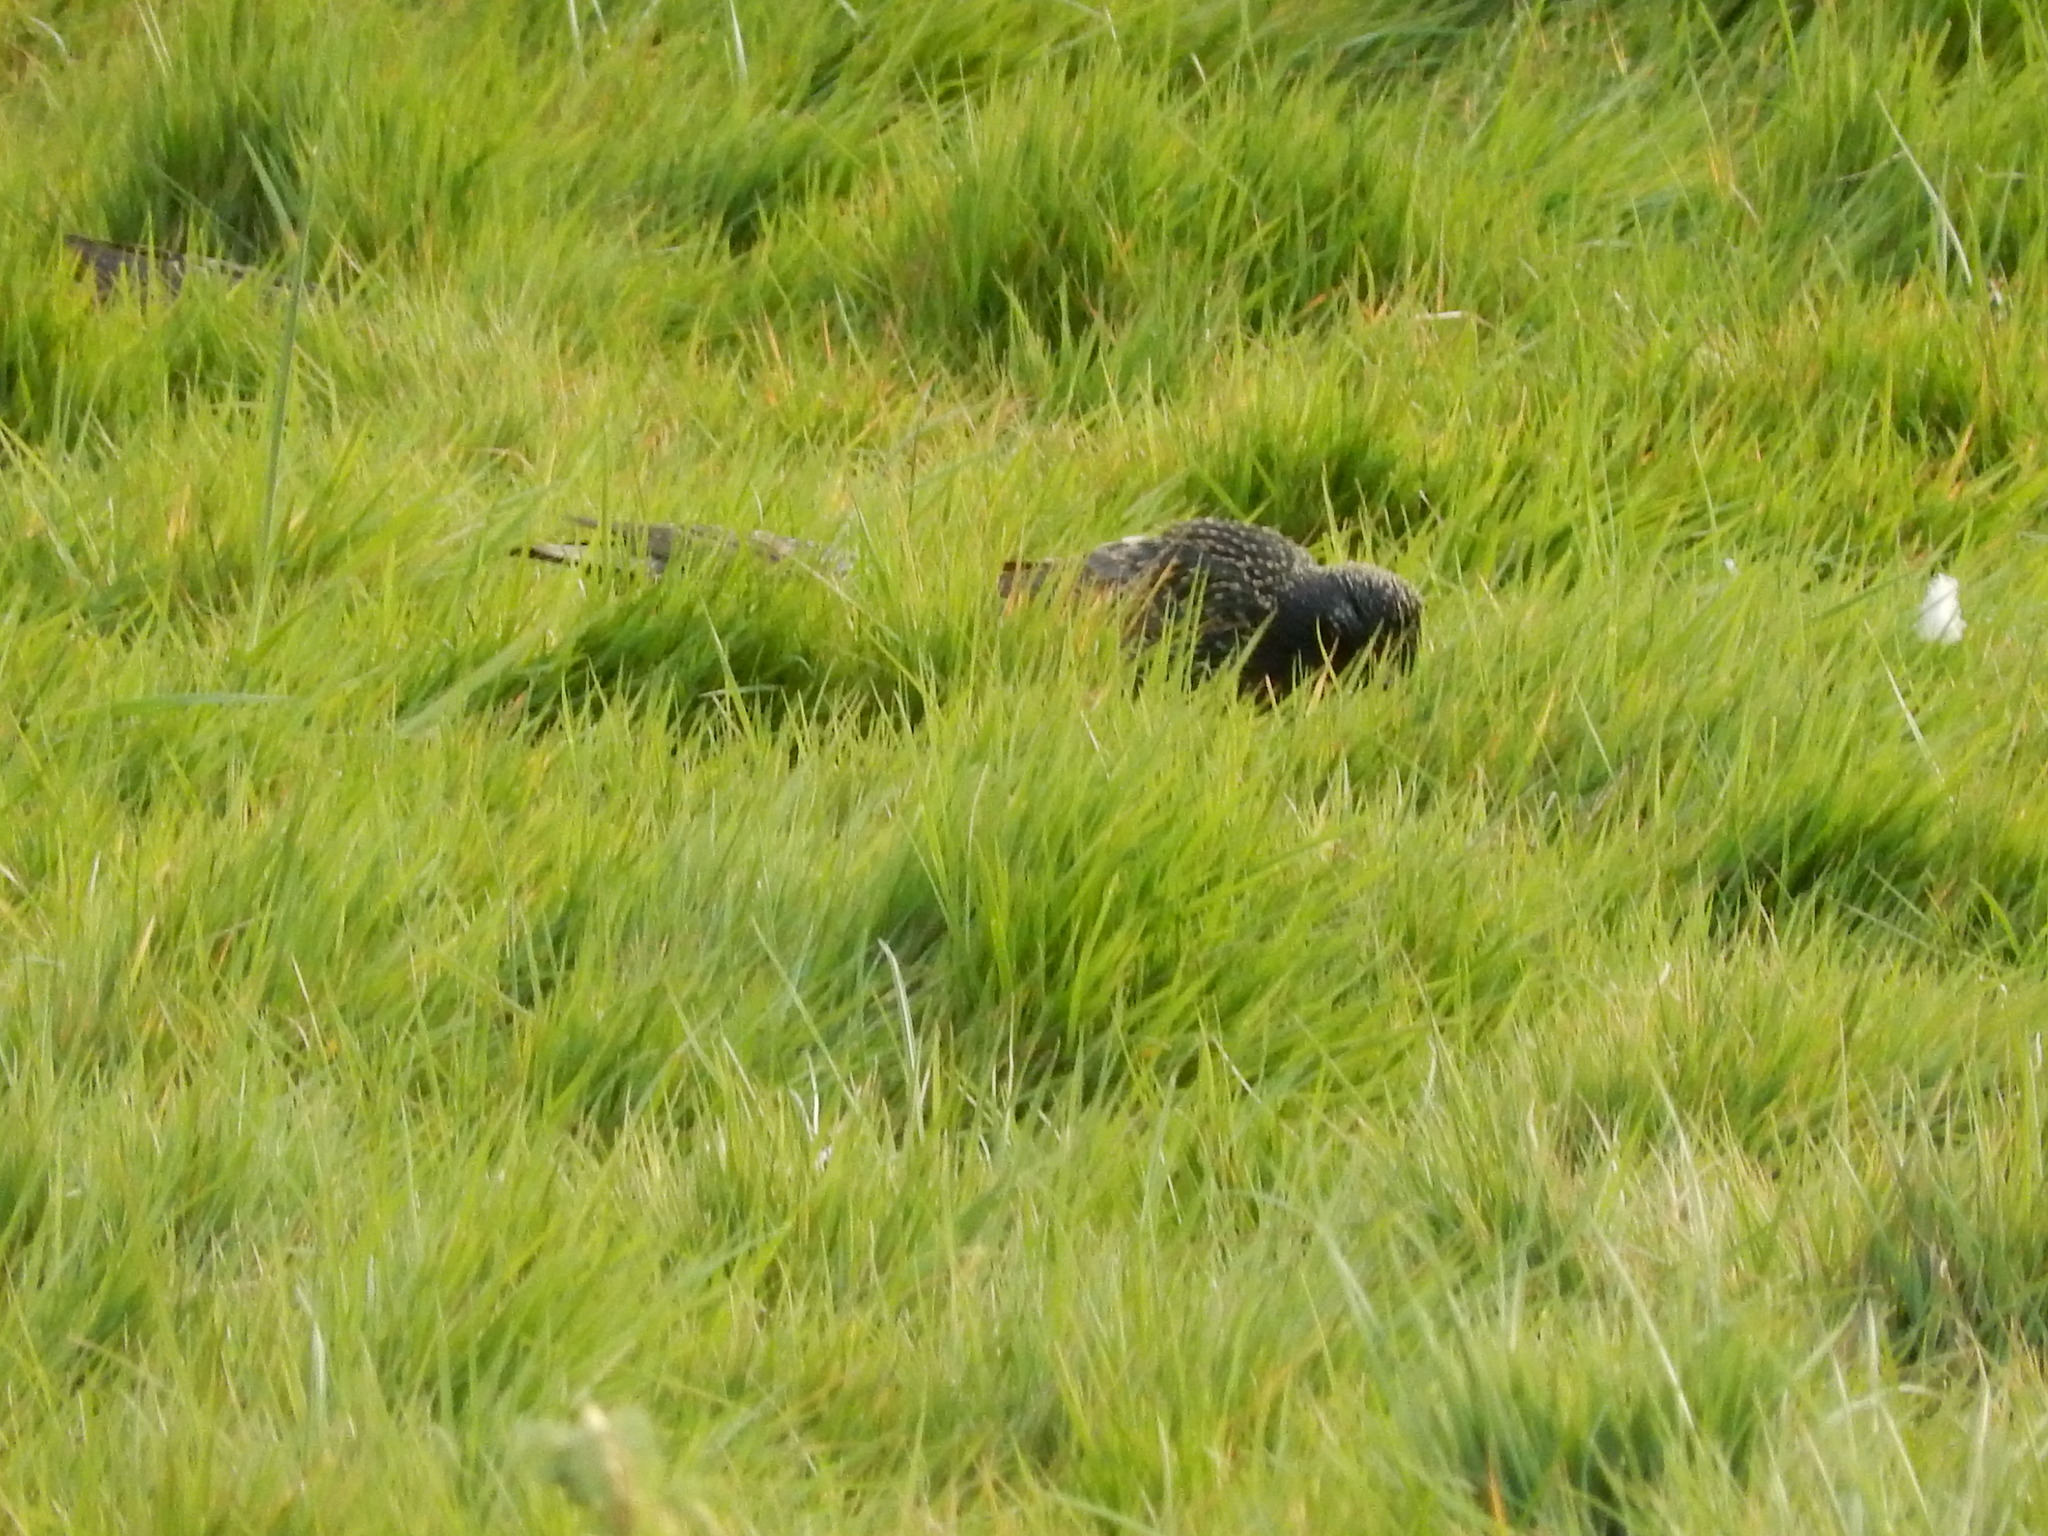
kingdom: Animalia
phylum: Chordata
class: Aves
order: Passeriformes
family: Sturnidae
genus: Sturnus
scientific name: Sturnus vulgaris
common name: Common starling
